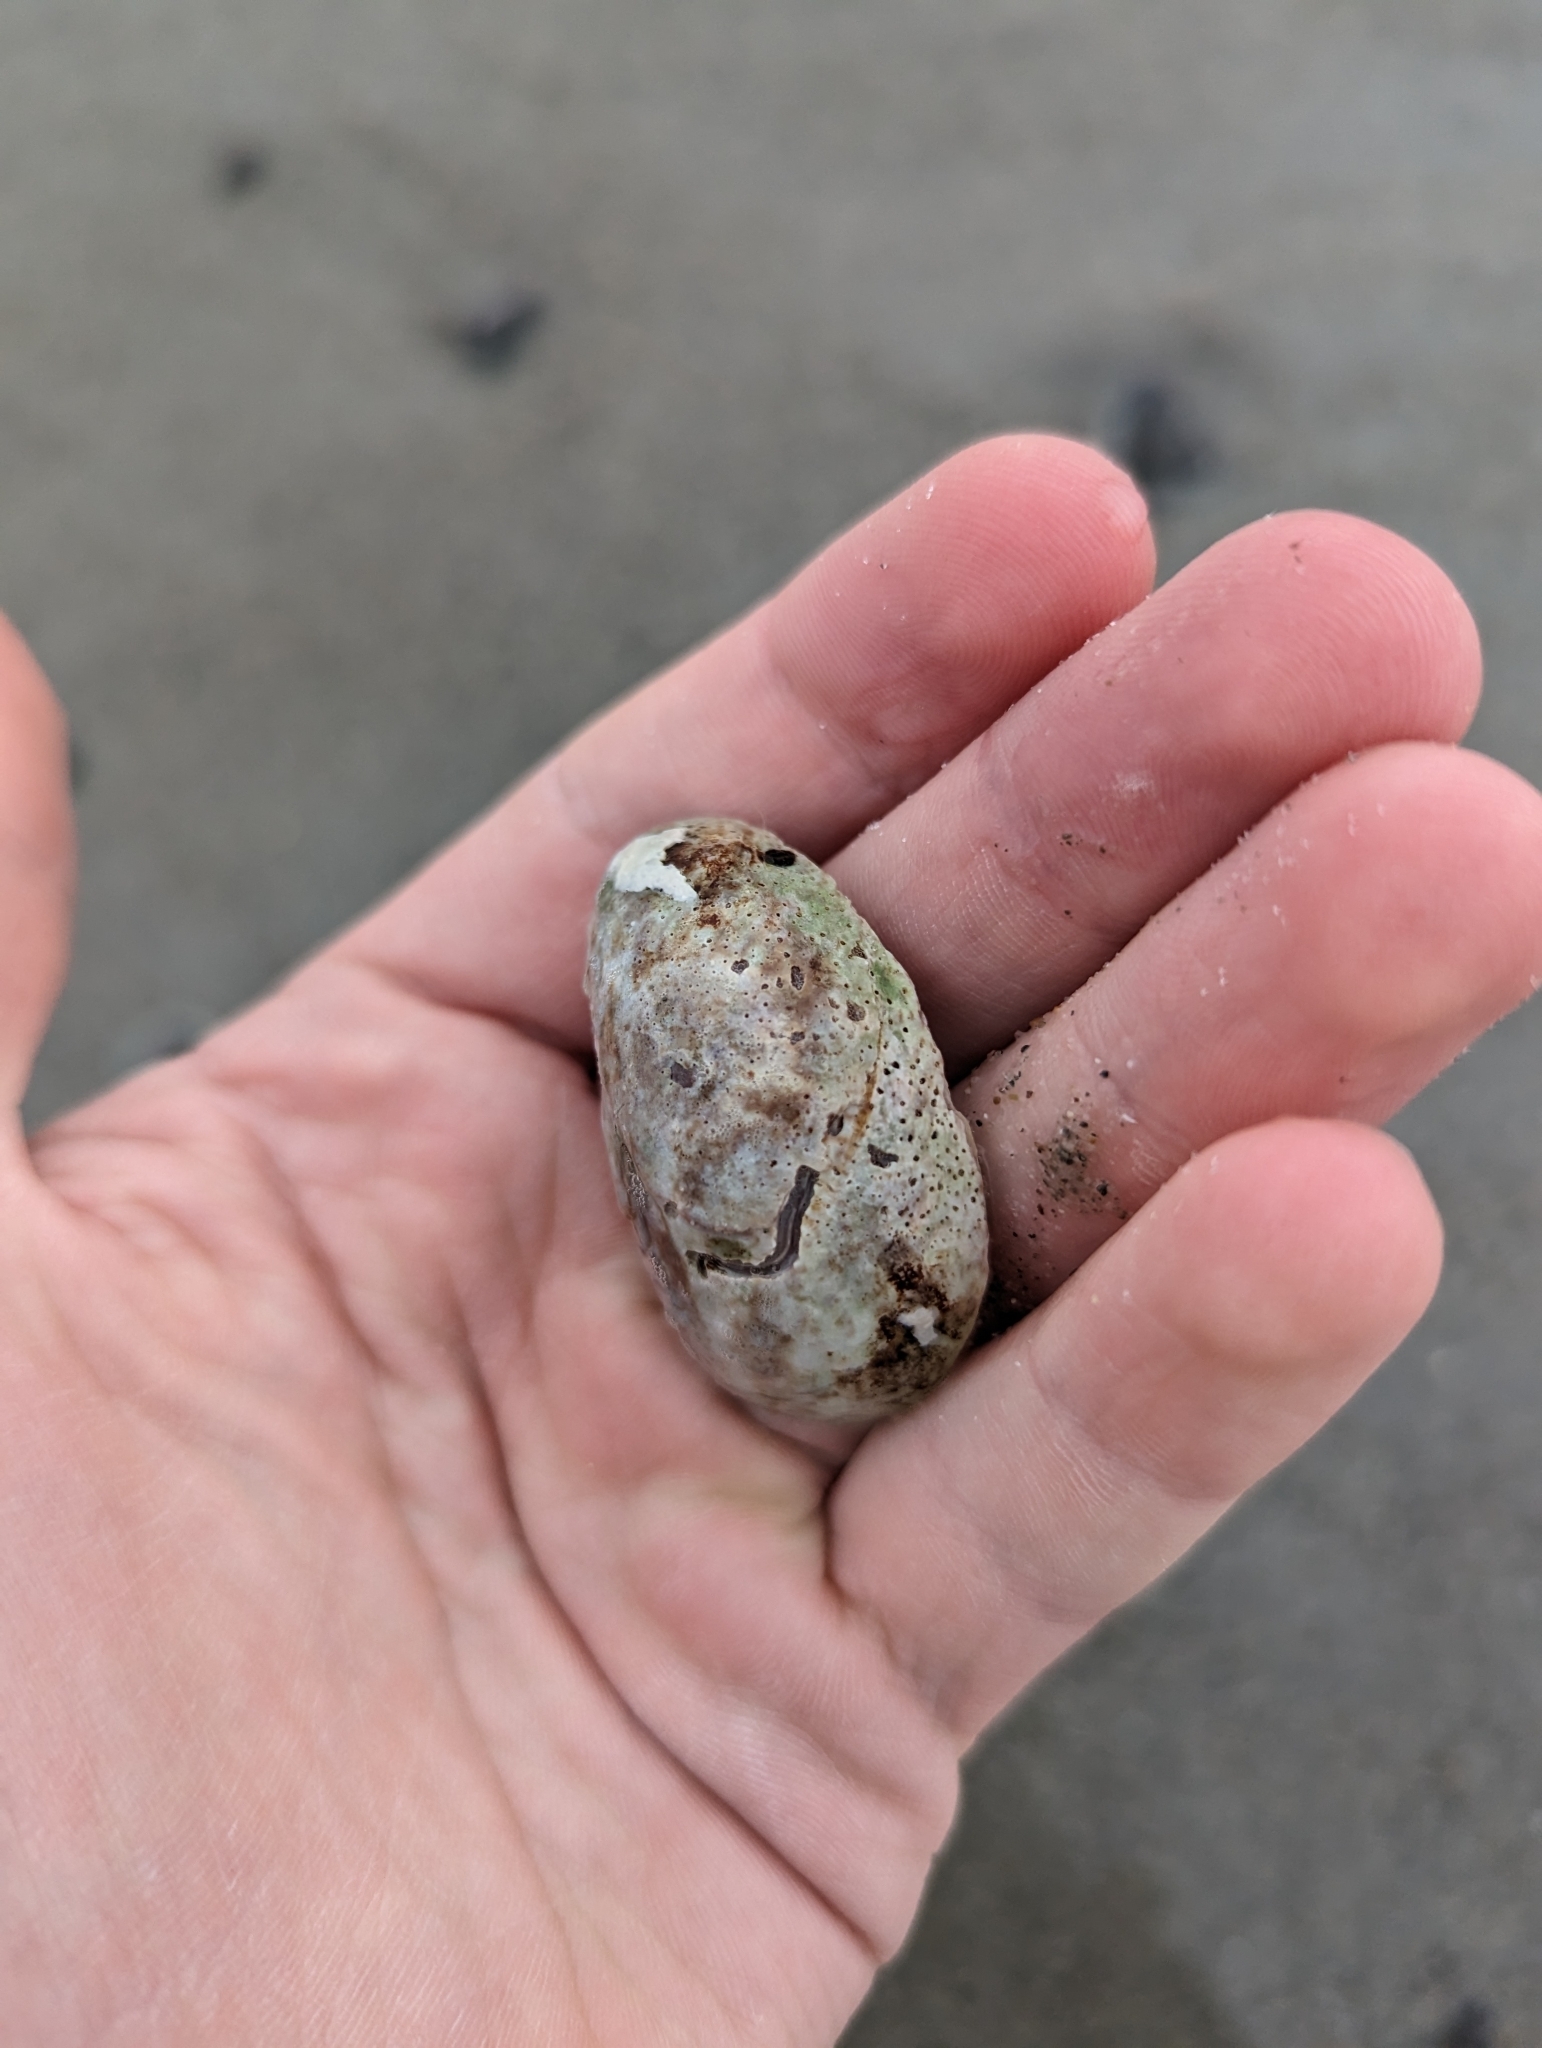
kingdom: Animalia
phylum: Mollusca
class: Gastropoda
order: Littorinimorpha
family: Calyptraeidae
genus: Crepidula
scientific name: Crepidula fornicata
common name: Slipper limpet
